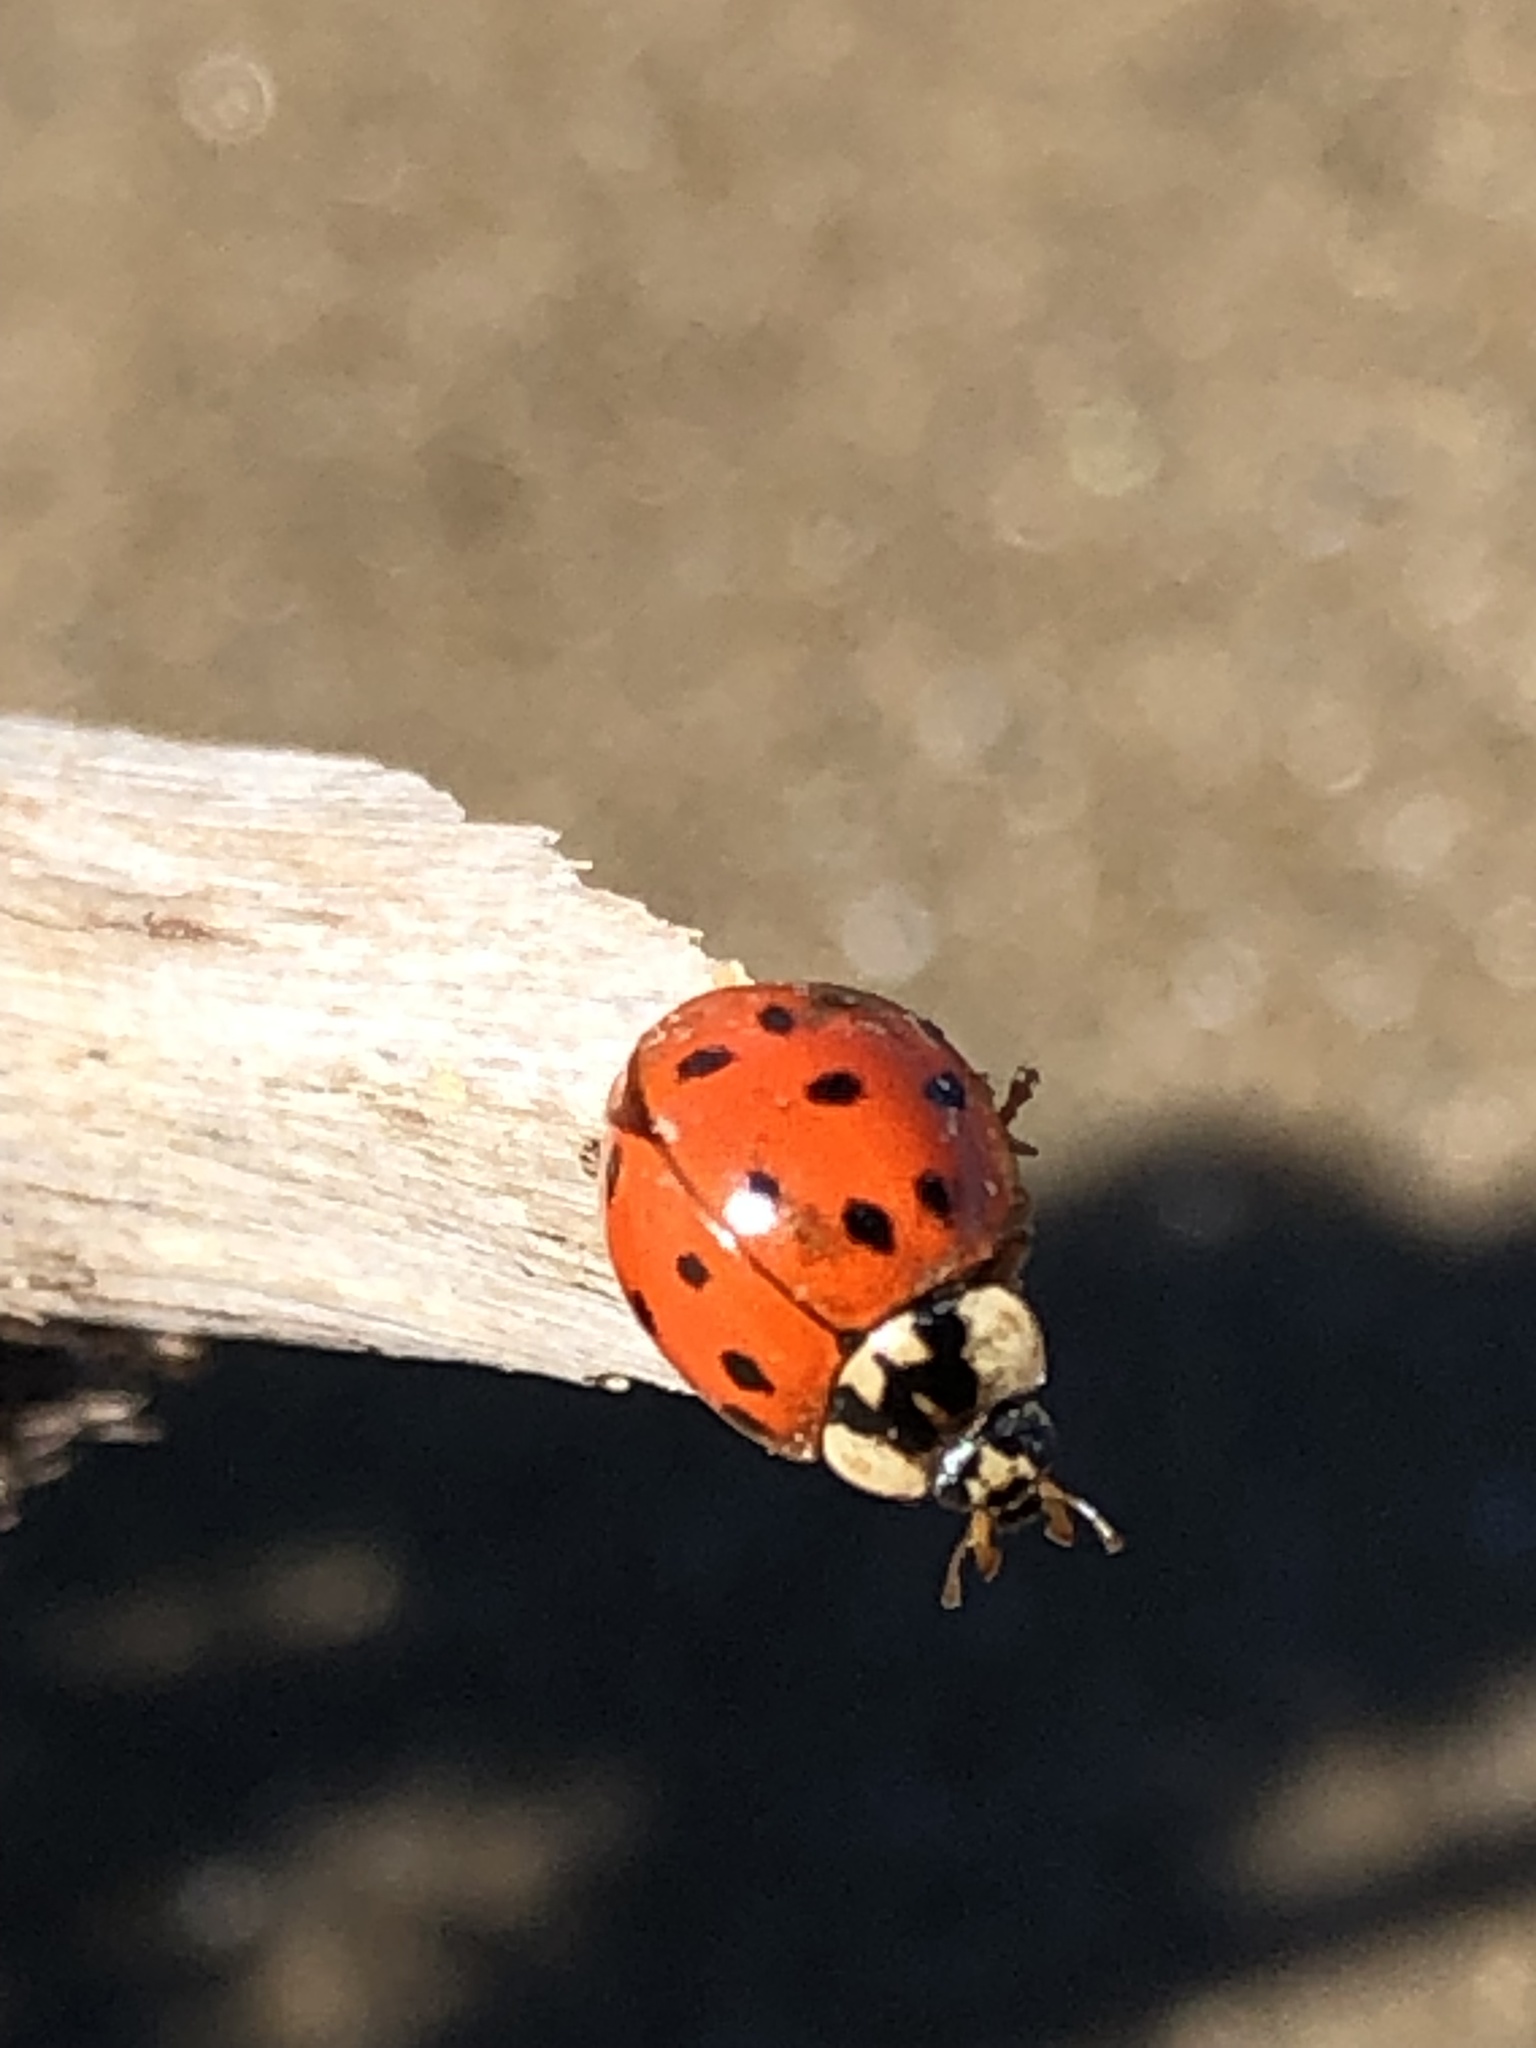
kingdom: Animalia
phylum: Arthropoda
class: Insecta
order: Coleoptera
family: Coccinellidae
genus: Harmonia
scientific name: Harmonia axyridis
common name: Harlequin ladybird
